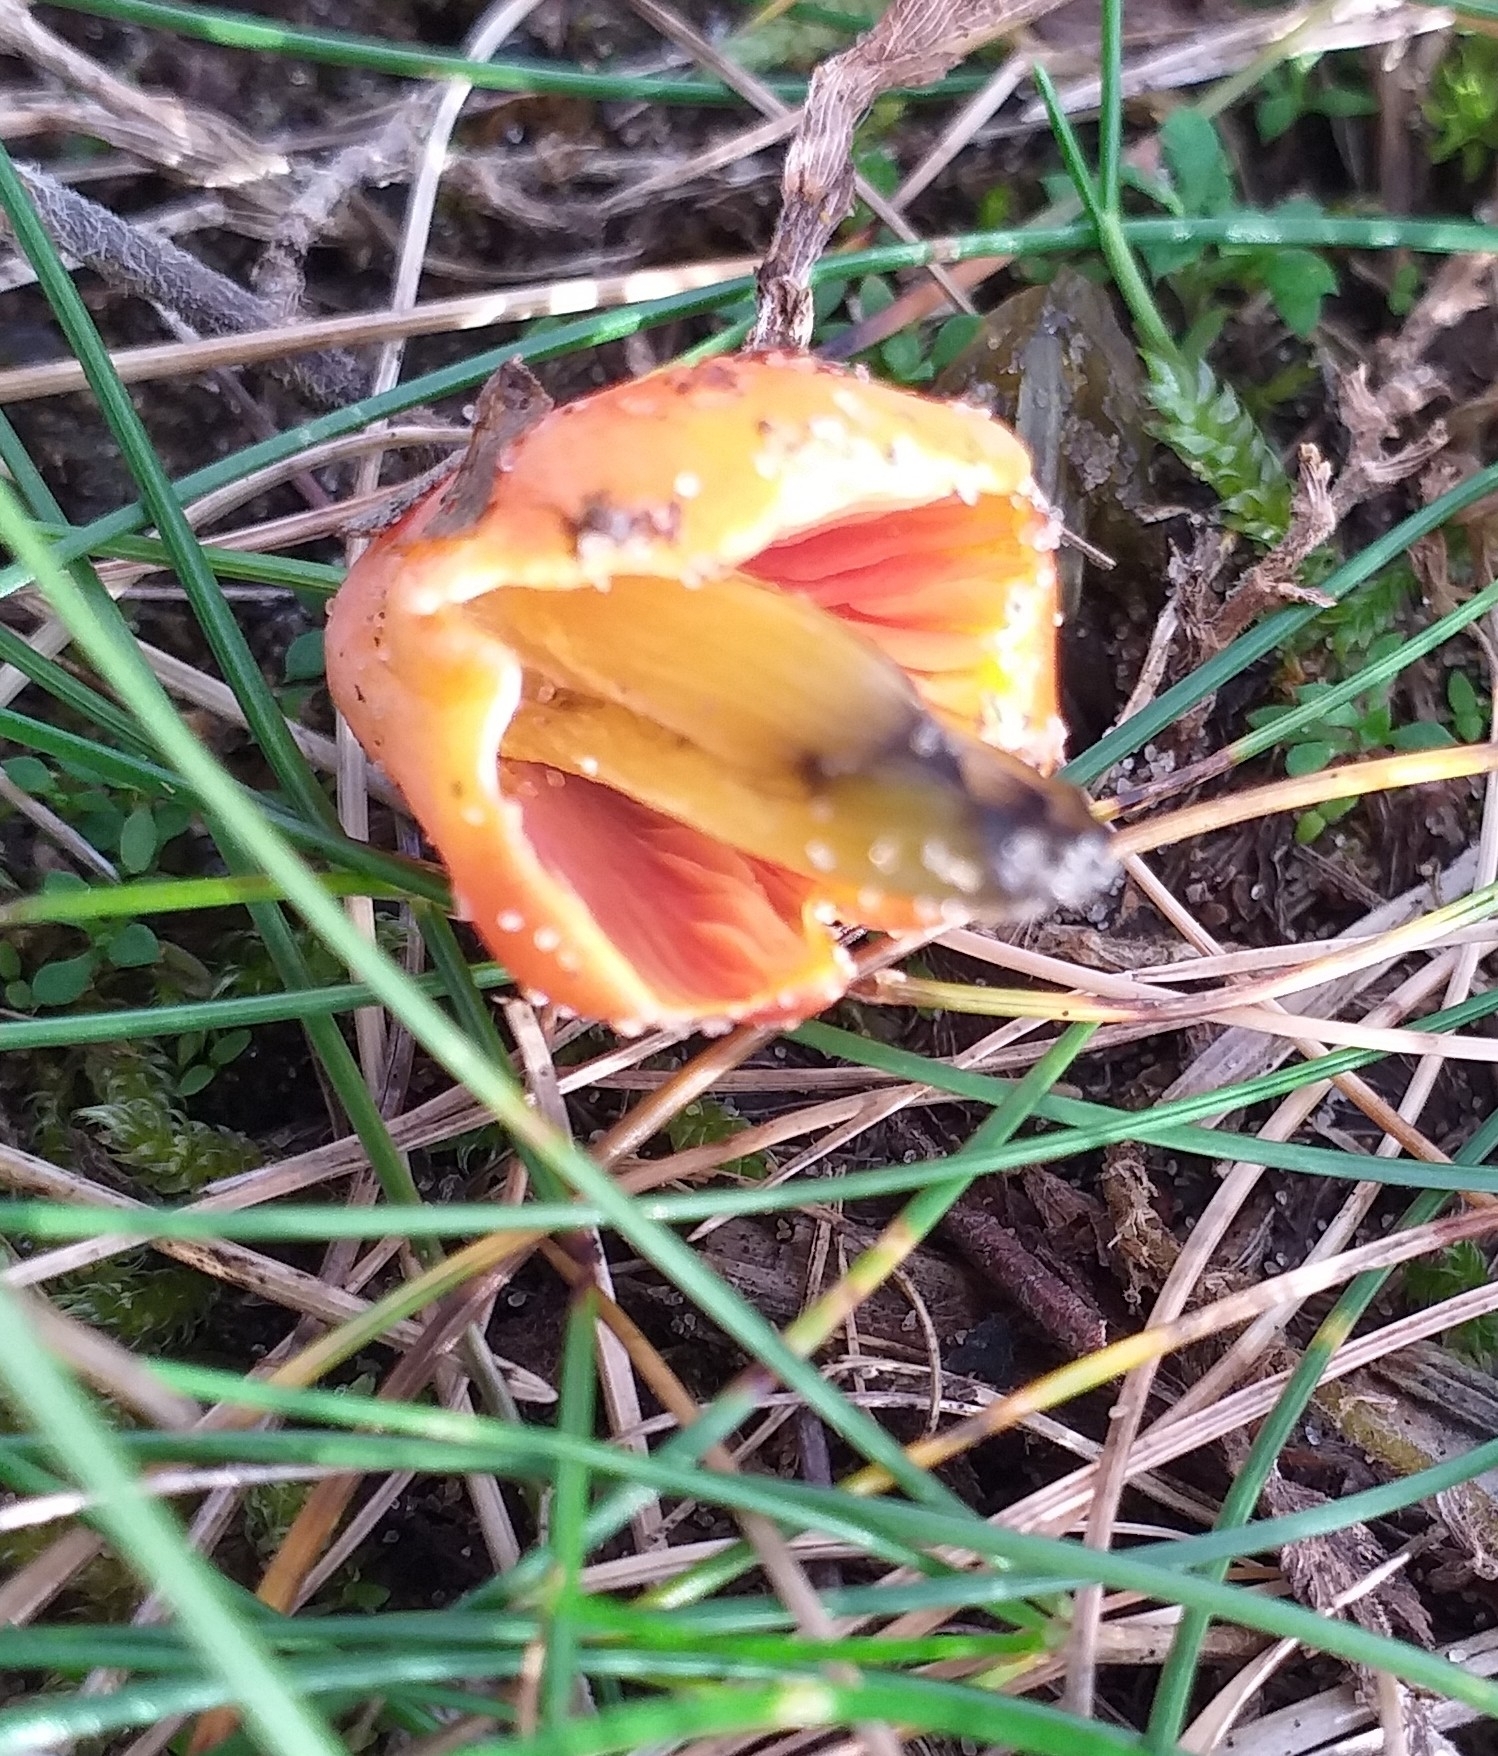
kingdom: Fungi
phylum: Basidiomycota
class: Agaricomycetes
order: Agaricales
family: Hygrophoraceae
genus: Hygrocybe
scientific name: Hygrocybe conica
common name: Blackening wax-cap
